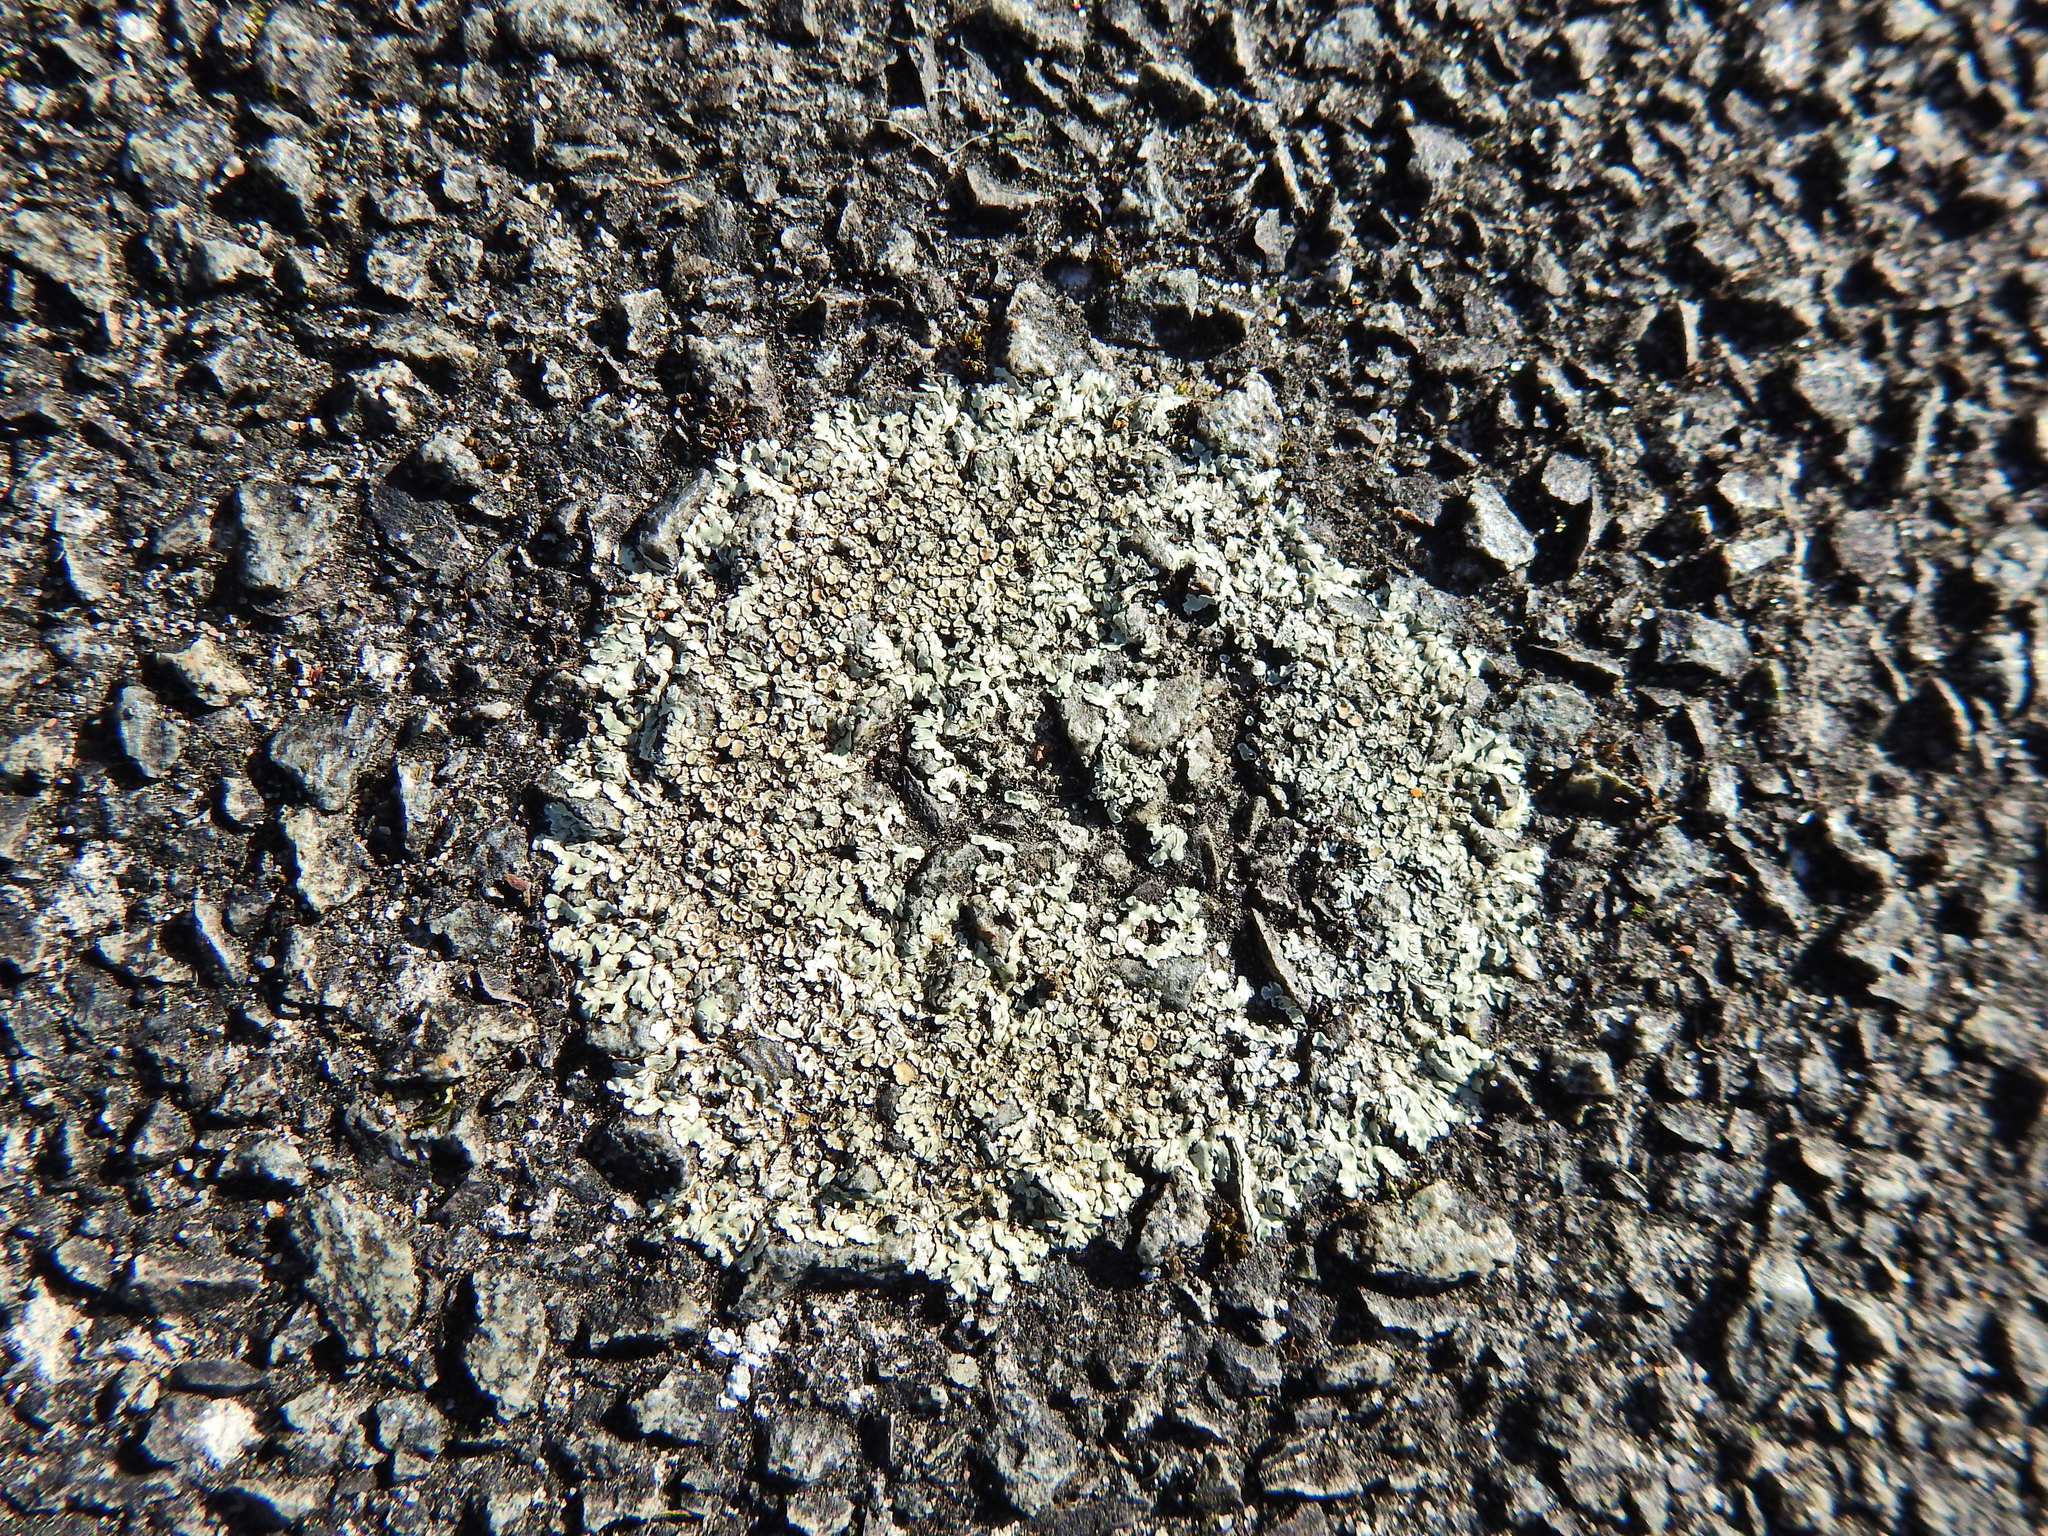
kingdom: Fungi
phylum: Ascomycota
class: Lecanoromycetes
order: Lecanorales
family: Lecanoraceae
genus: Protoparmeliopsis
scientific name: Protoparmeliopsis muralis
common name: Stonewall rim lichen
